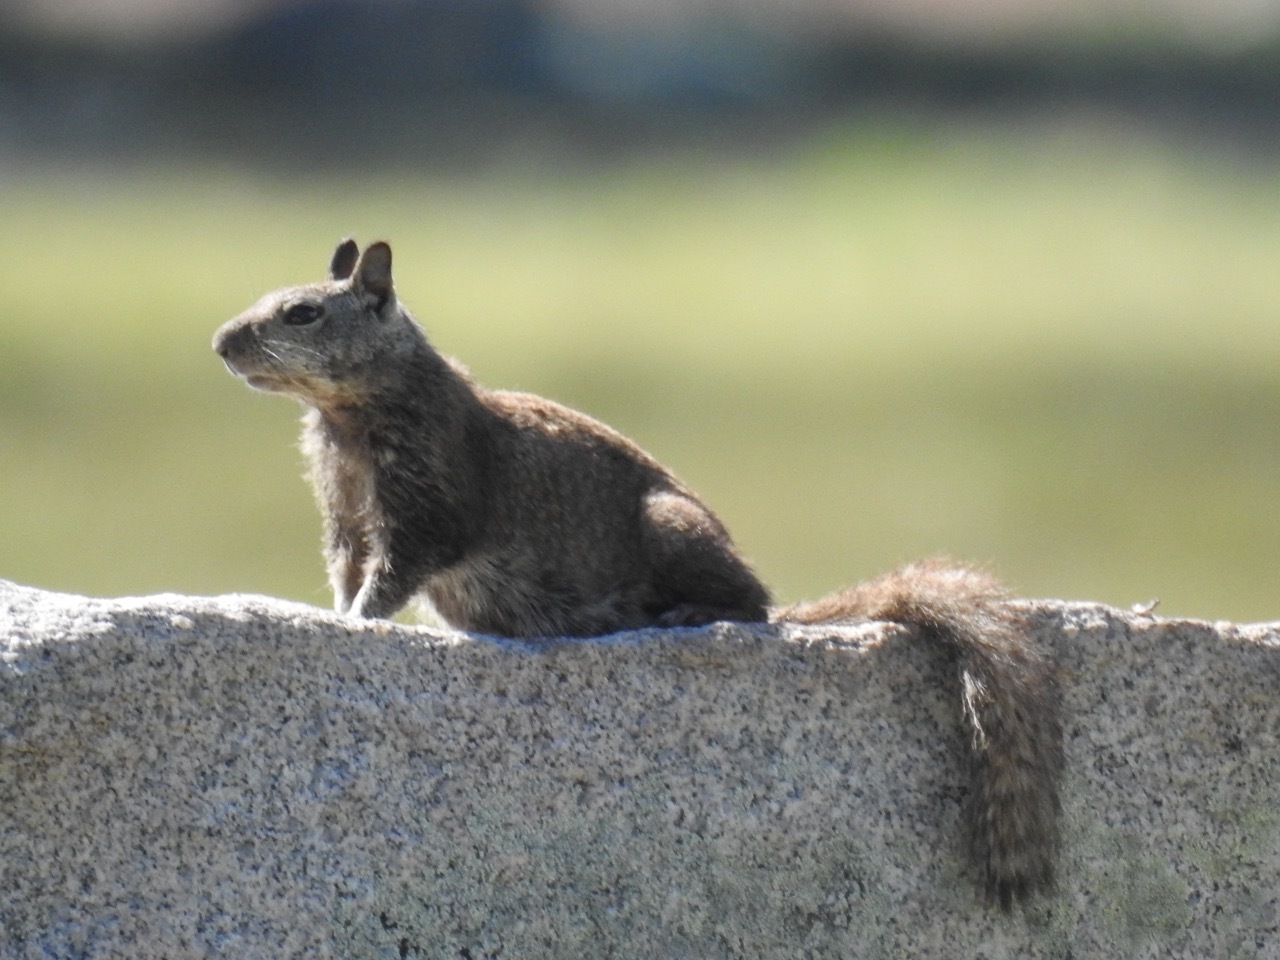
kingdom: Animalia
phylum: Chordata
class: Mammalia
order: Rodentia
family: Sciuridae
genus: Otospermophilus
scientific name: Otospermophilus beecheyi
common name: California ground squirrel
